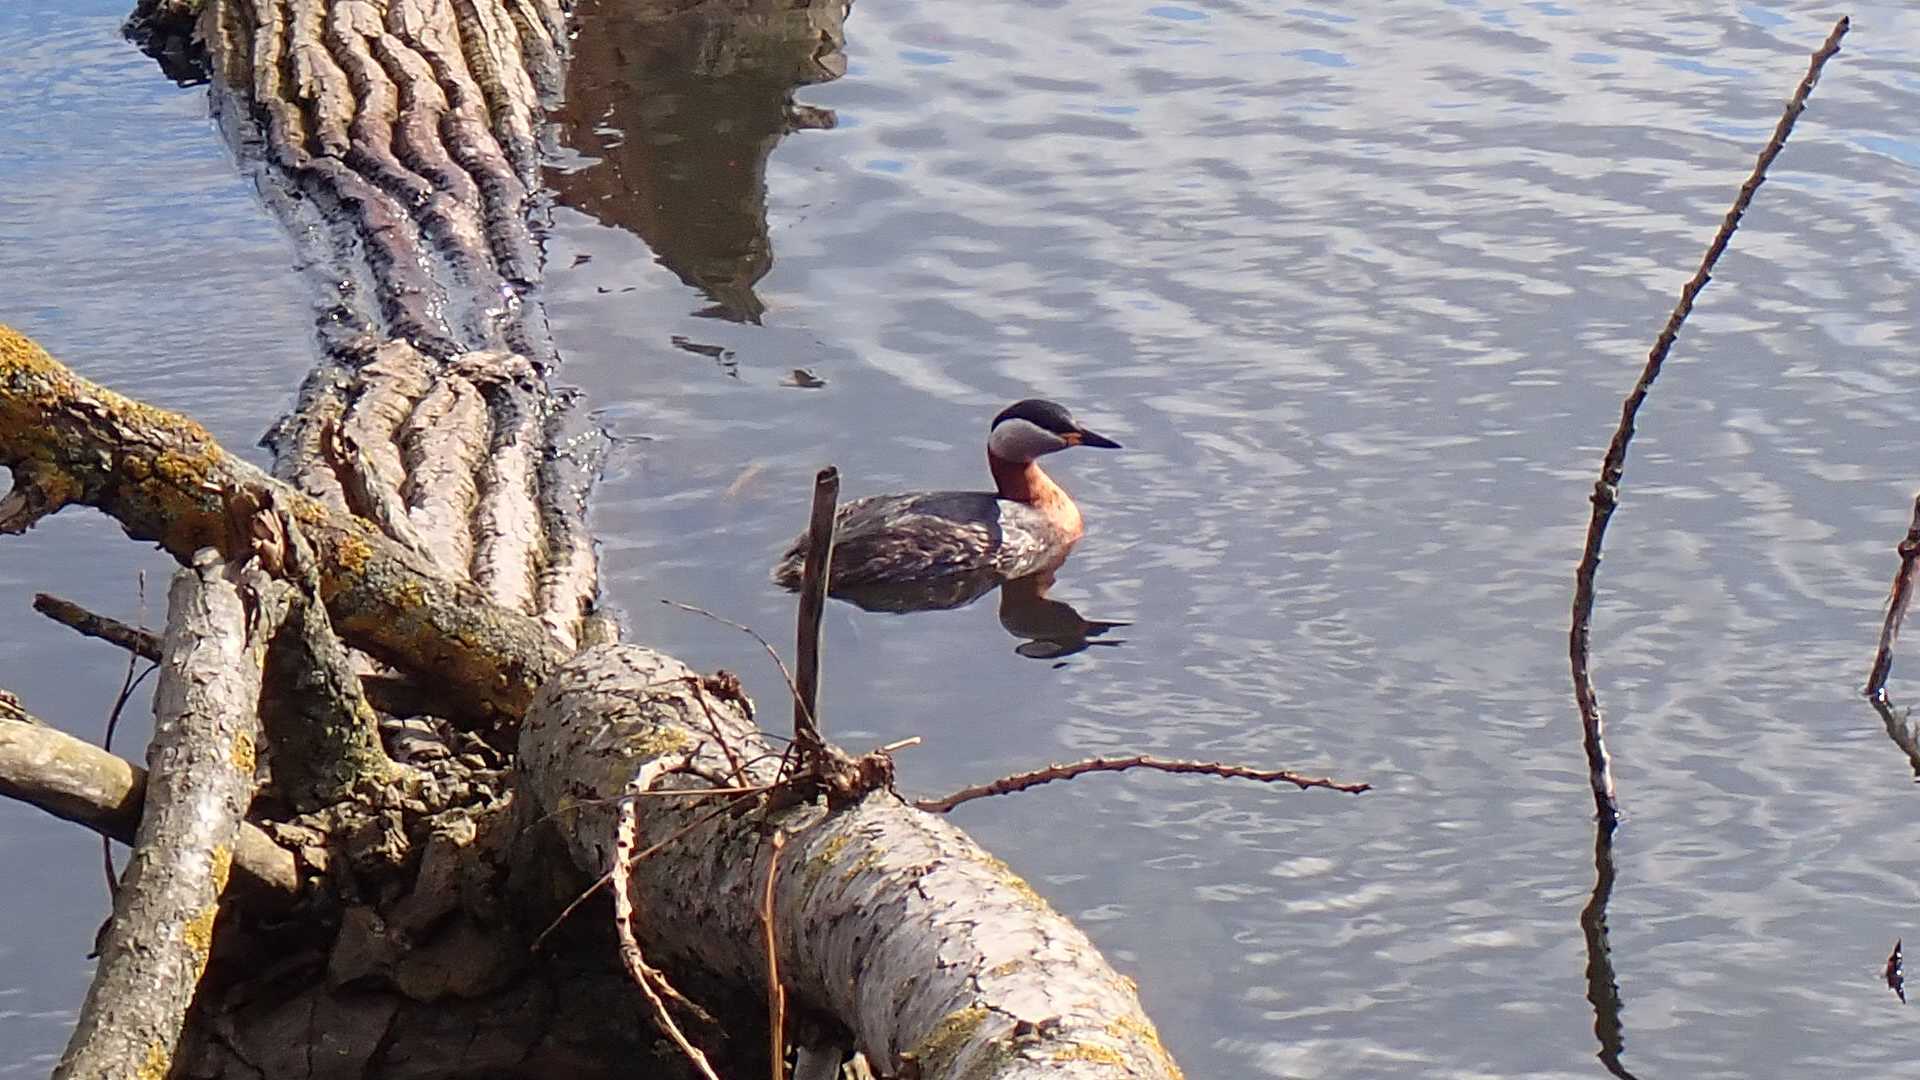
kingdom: Animalia
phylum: Chordata
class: Aves
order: Podicipediformes
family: Podicipedidae
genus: Podiceps
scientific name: Podiceps grisegena
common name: Red-necked grebe
